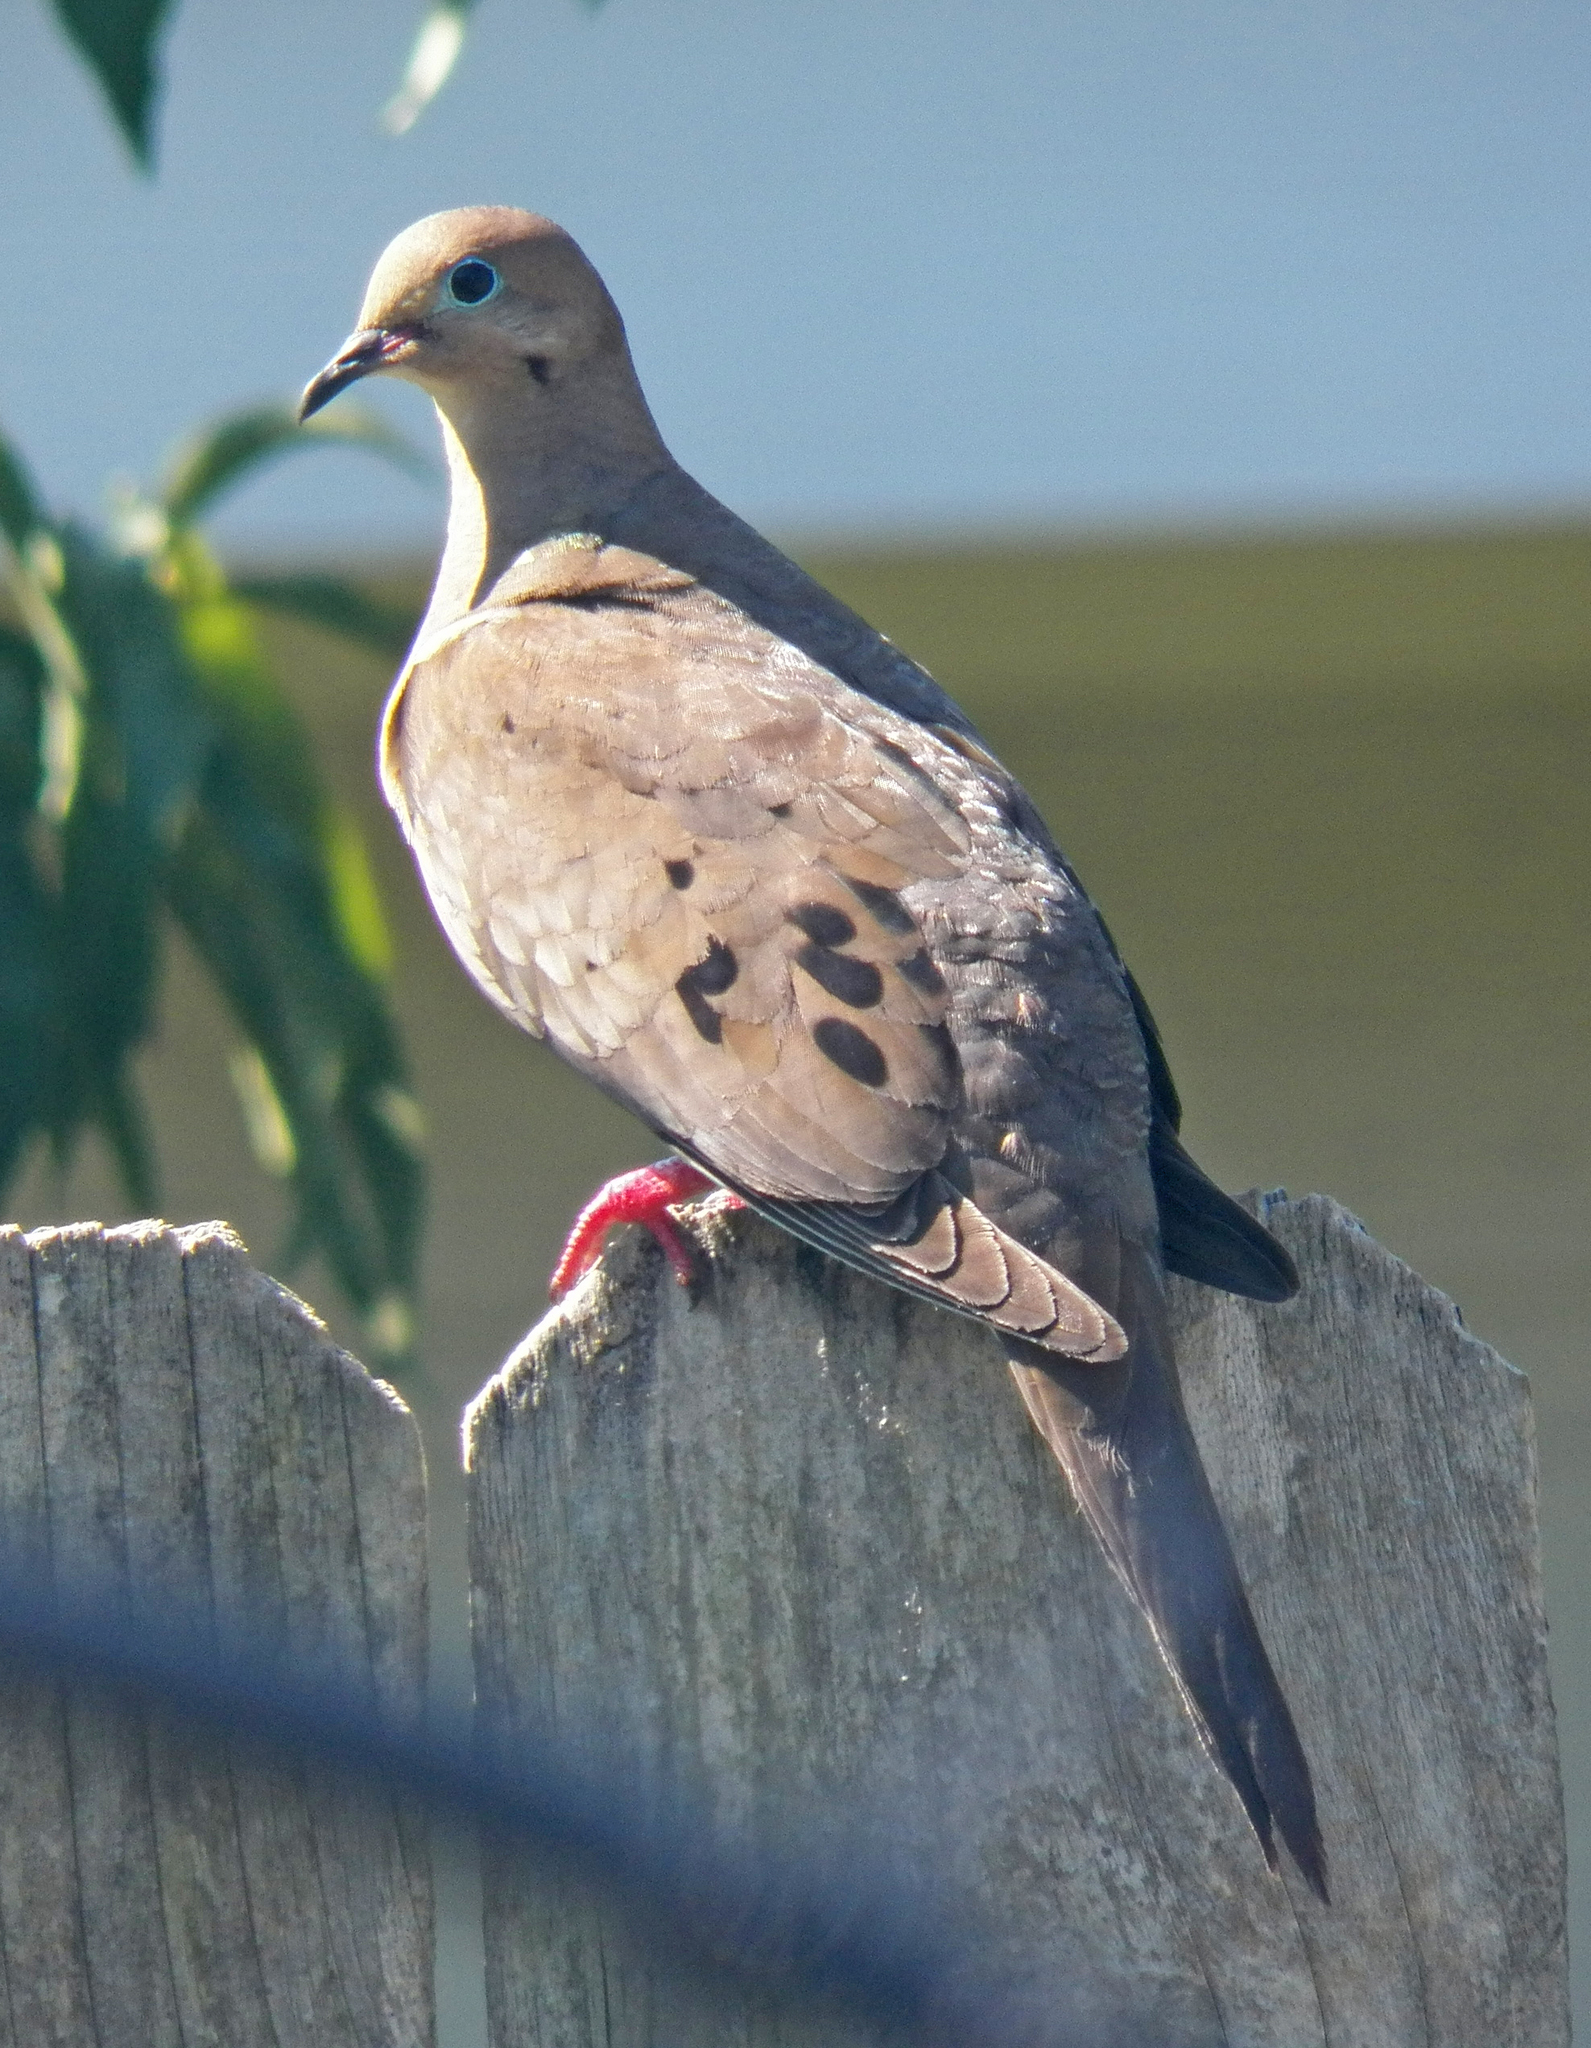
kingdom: Animalia
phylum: Chordata
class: Aves
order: Columbiformes
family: Columbidae
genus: Zenaida
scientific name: Zenaida macroura
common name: Mourning dove
